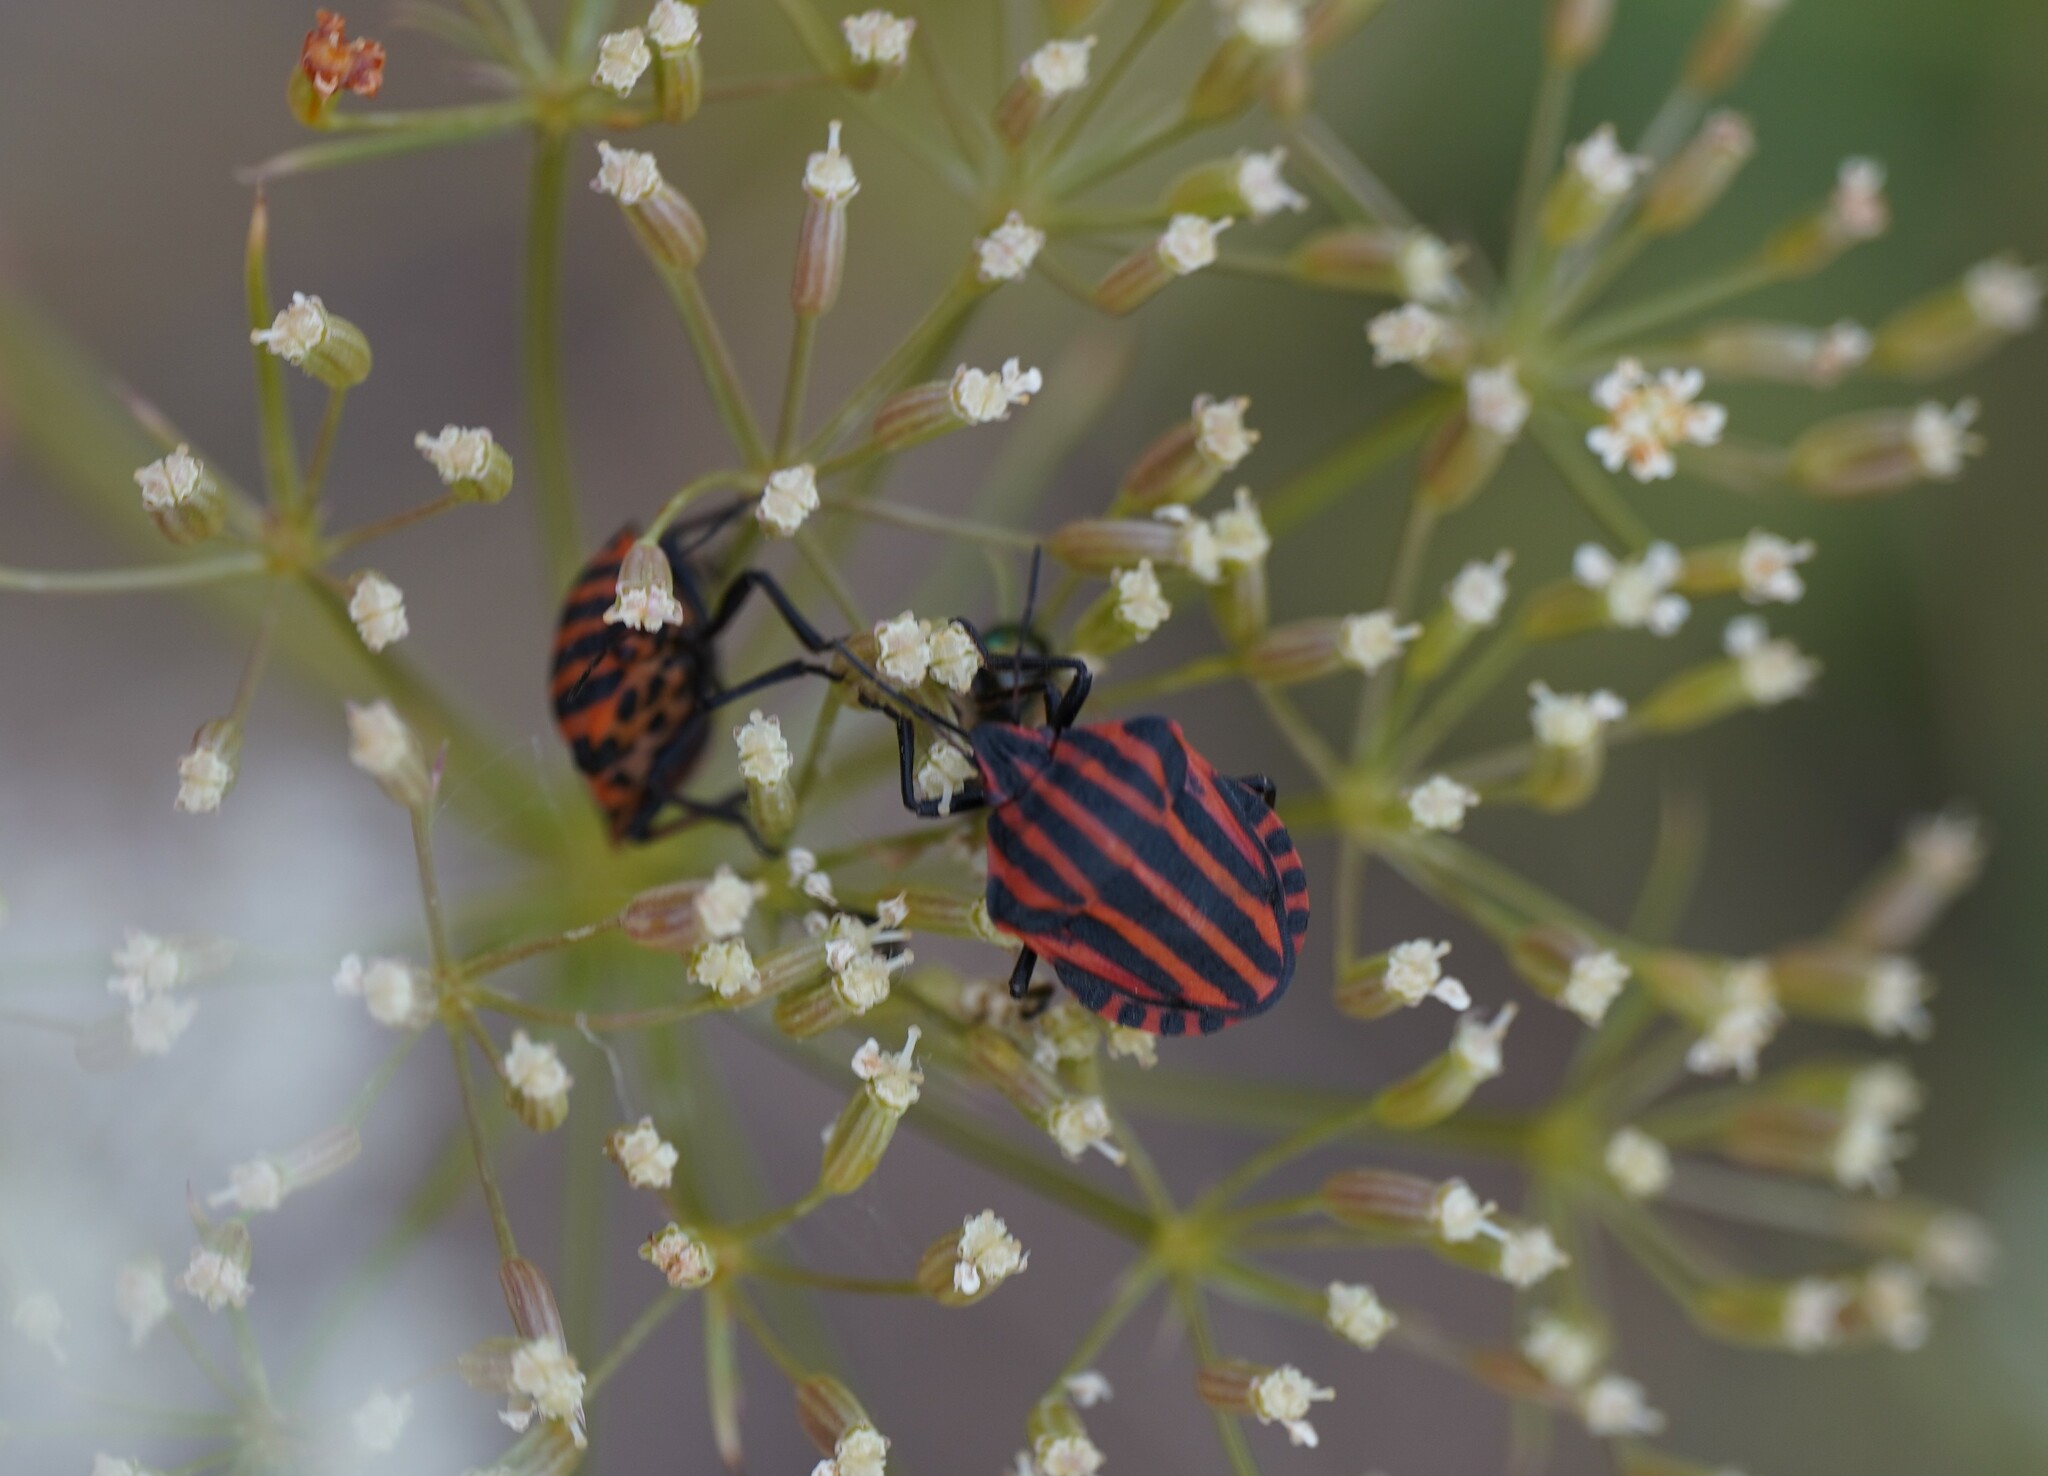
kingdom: Animalia
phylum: Arthropoda
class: Insecta
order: Hemiptera
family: Pentatomidae
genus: Graphosoma
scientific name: Graphosoma italicum
